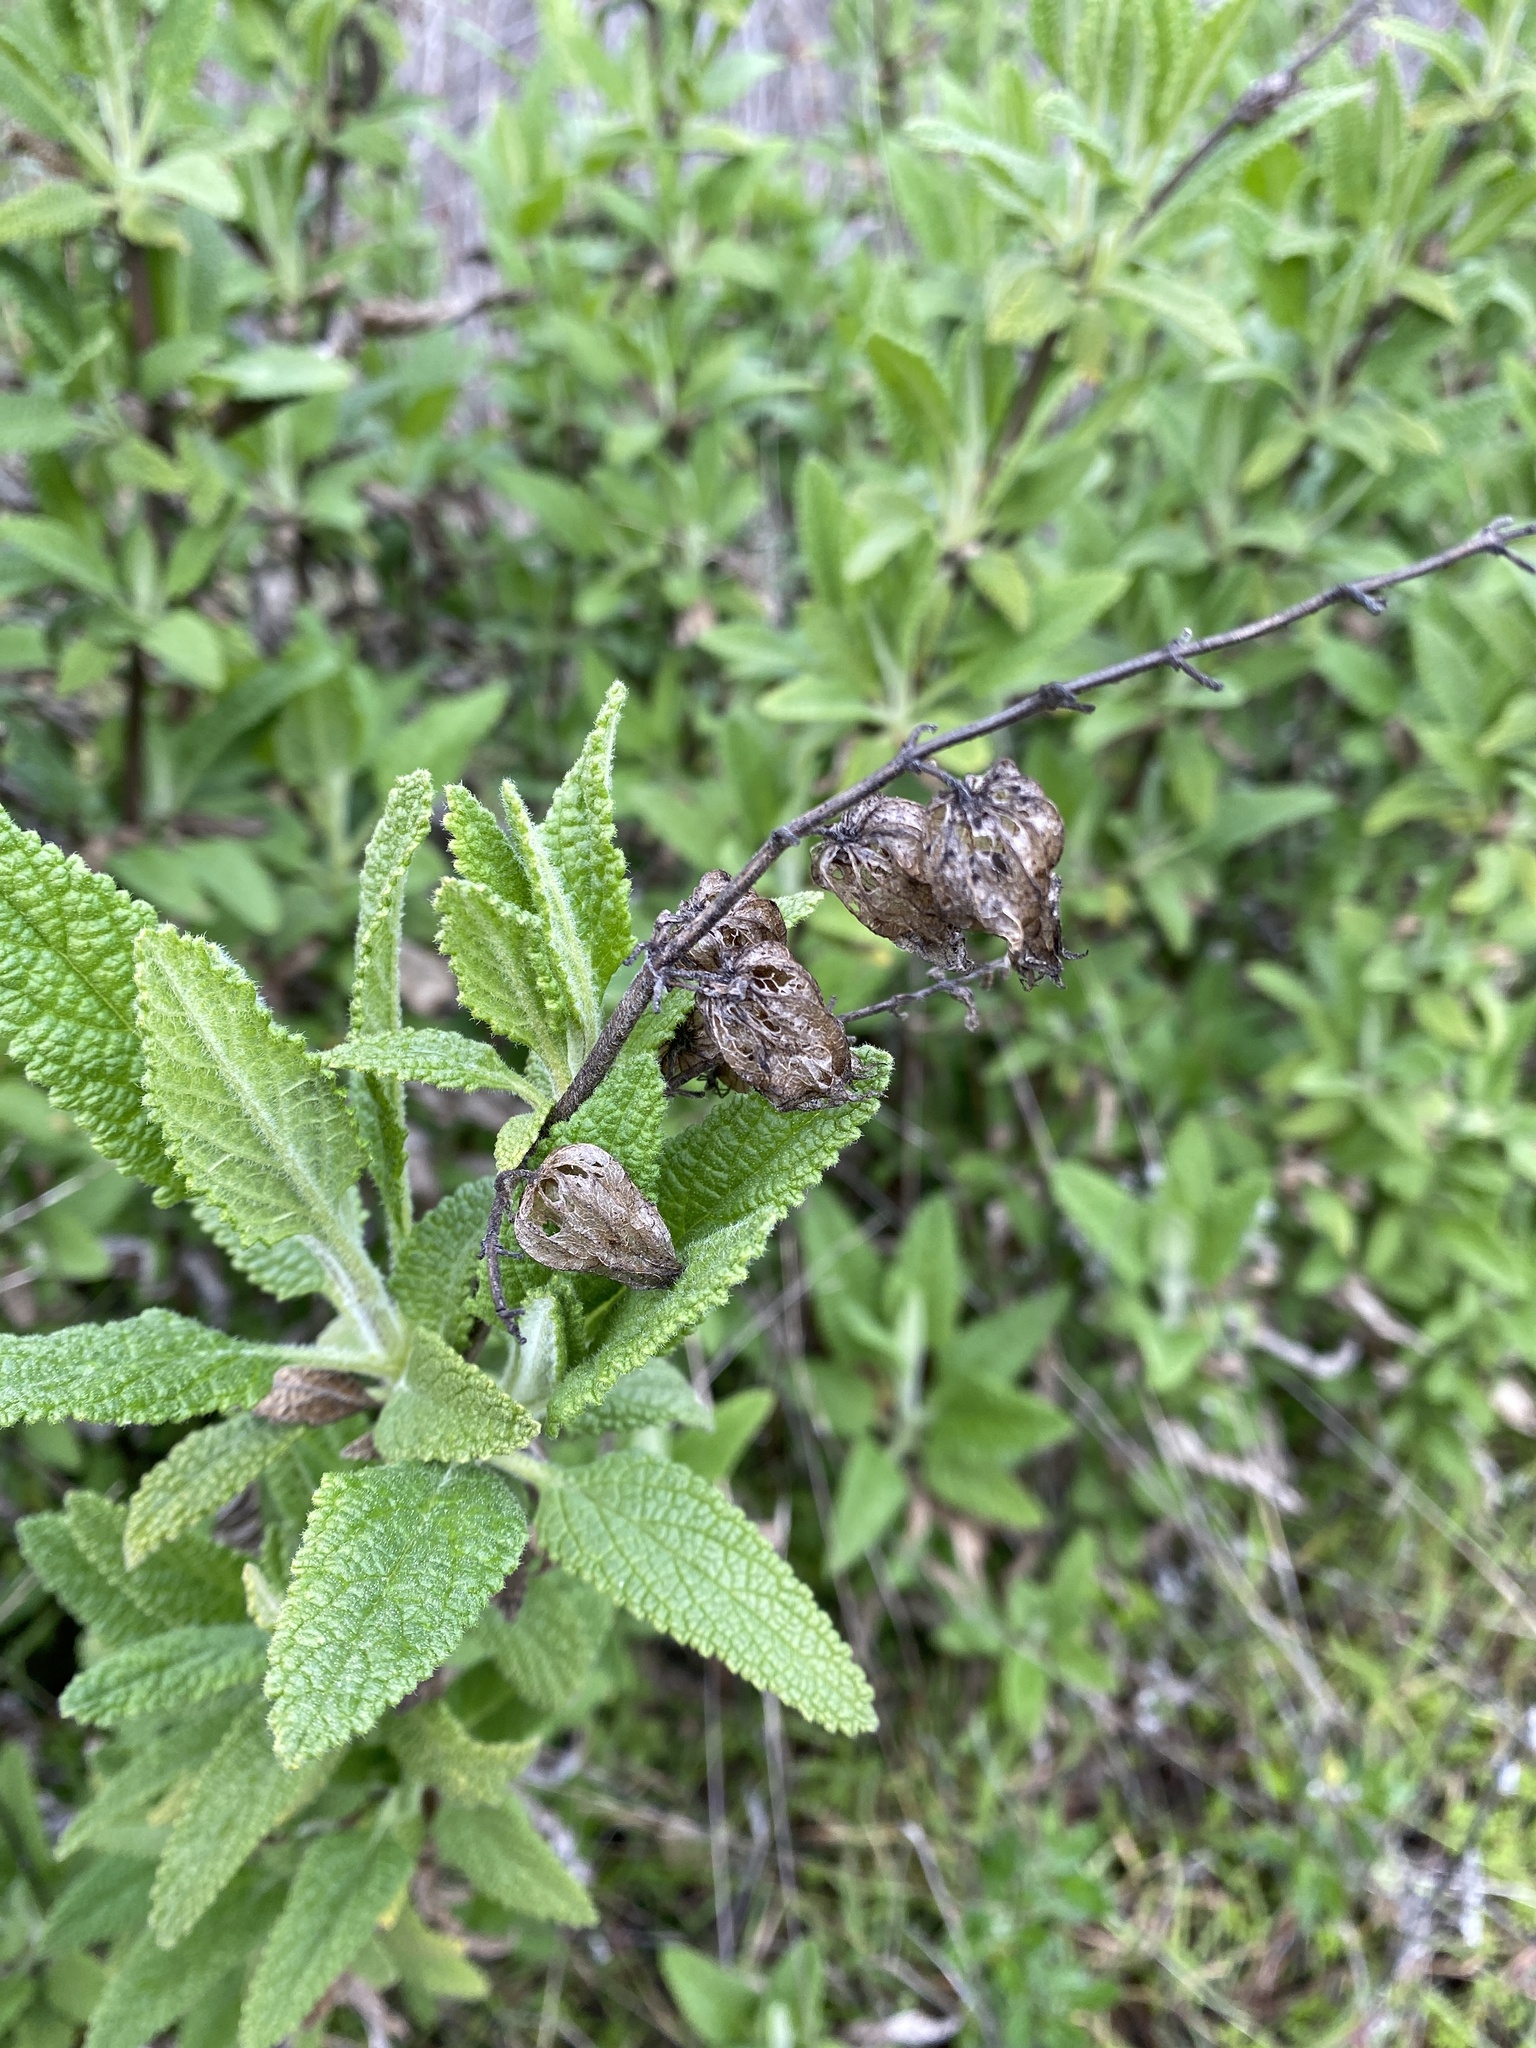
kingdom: Plantae
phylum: Tracheophyta
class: Magnoliopsida
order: Lamiales
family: Lamiaceae
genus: Lepechinia
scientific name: Lepechinia calycina
